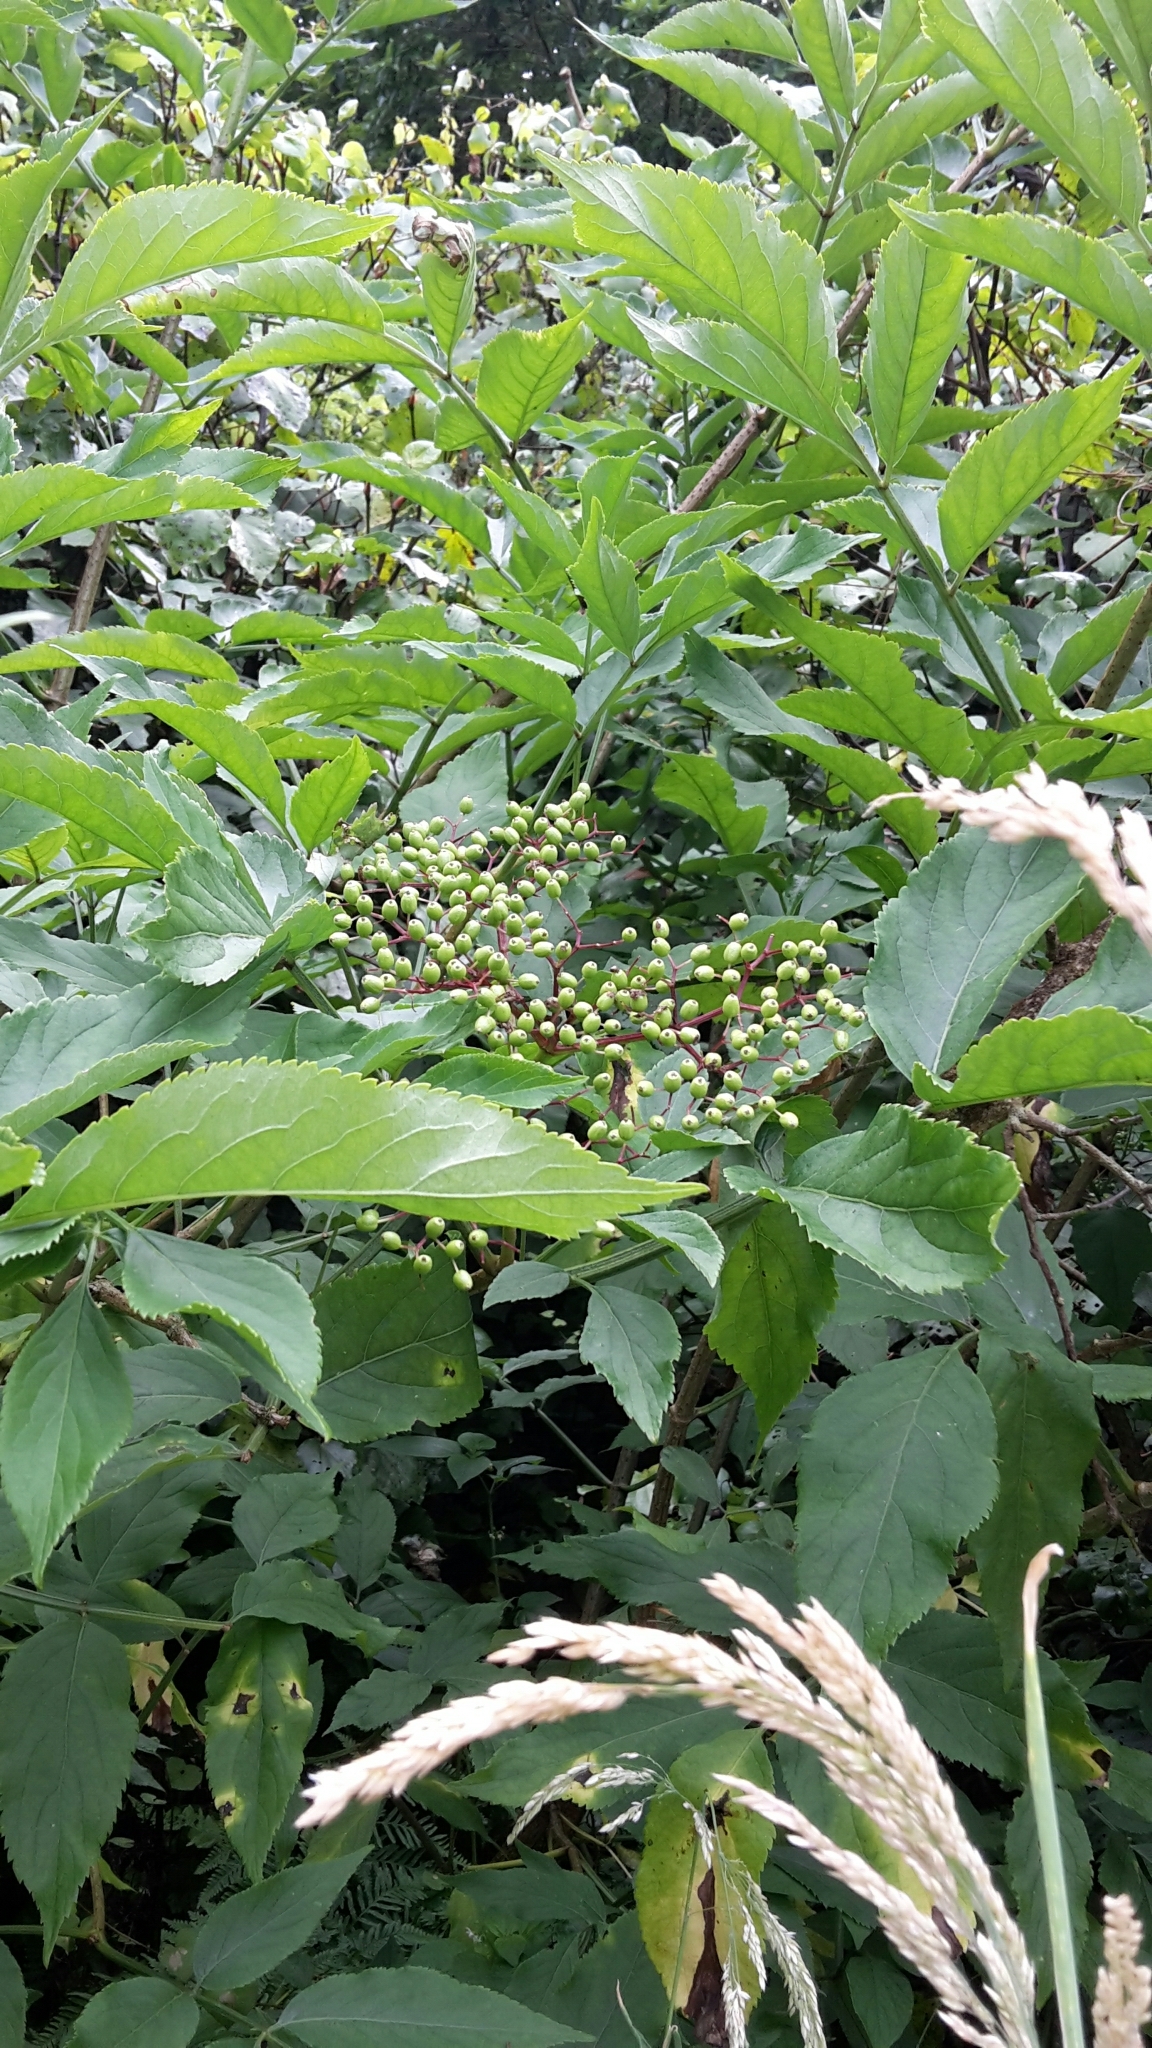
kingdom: Plantae
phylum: Tracheophyta
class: Magnoliopsida
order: Dipsacales
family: Viburnaceae
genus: Sambucus
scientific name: Sambucus nigra
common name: Elder
